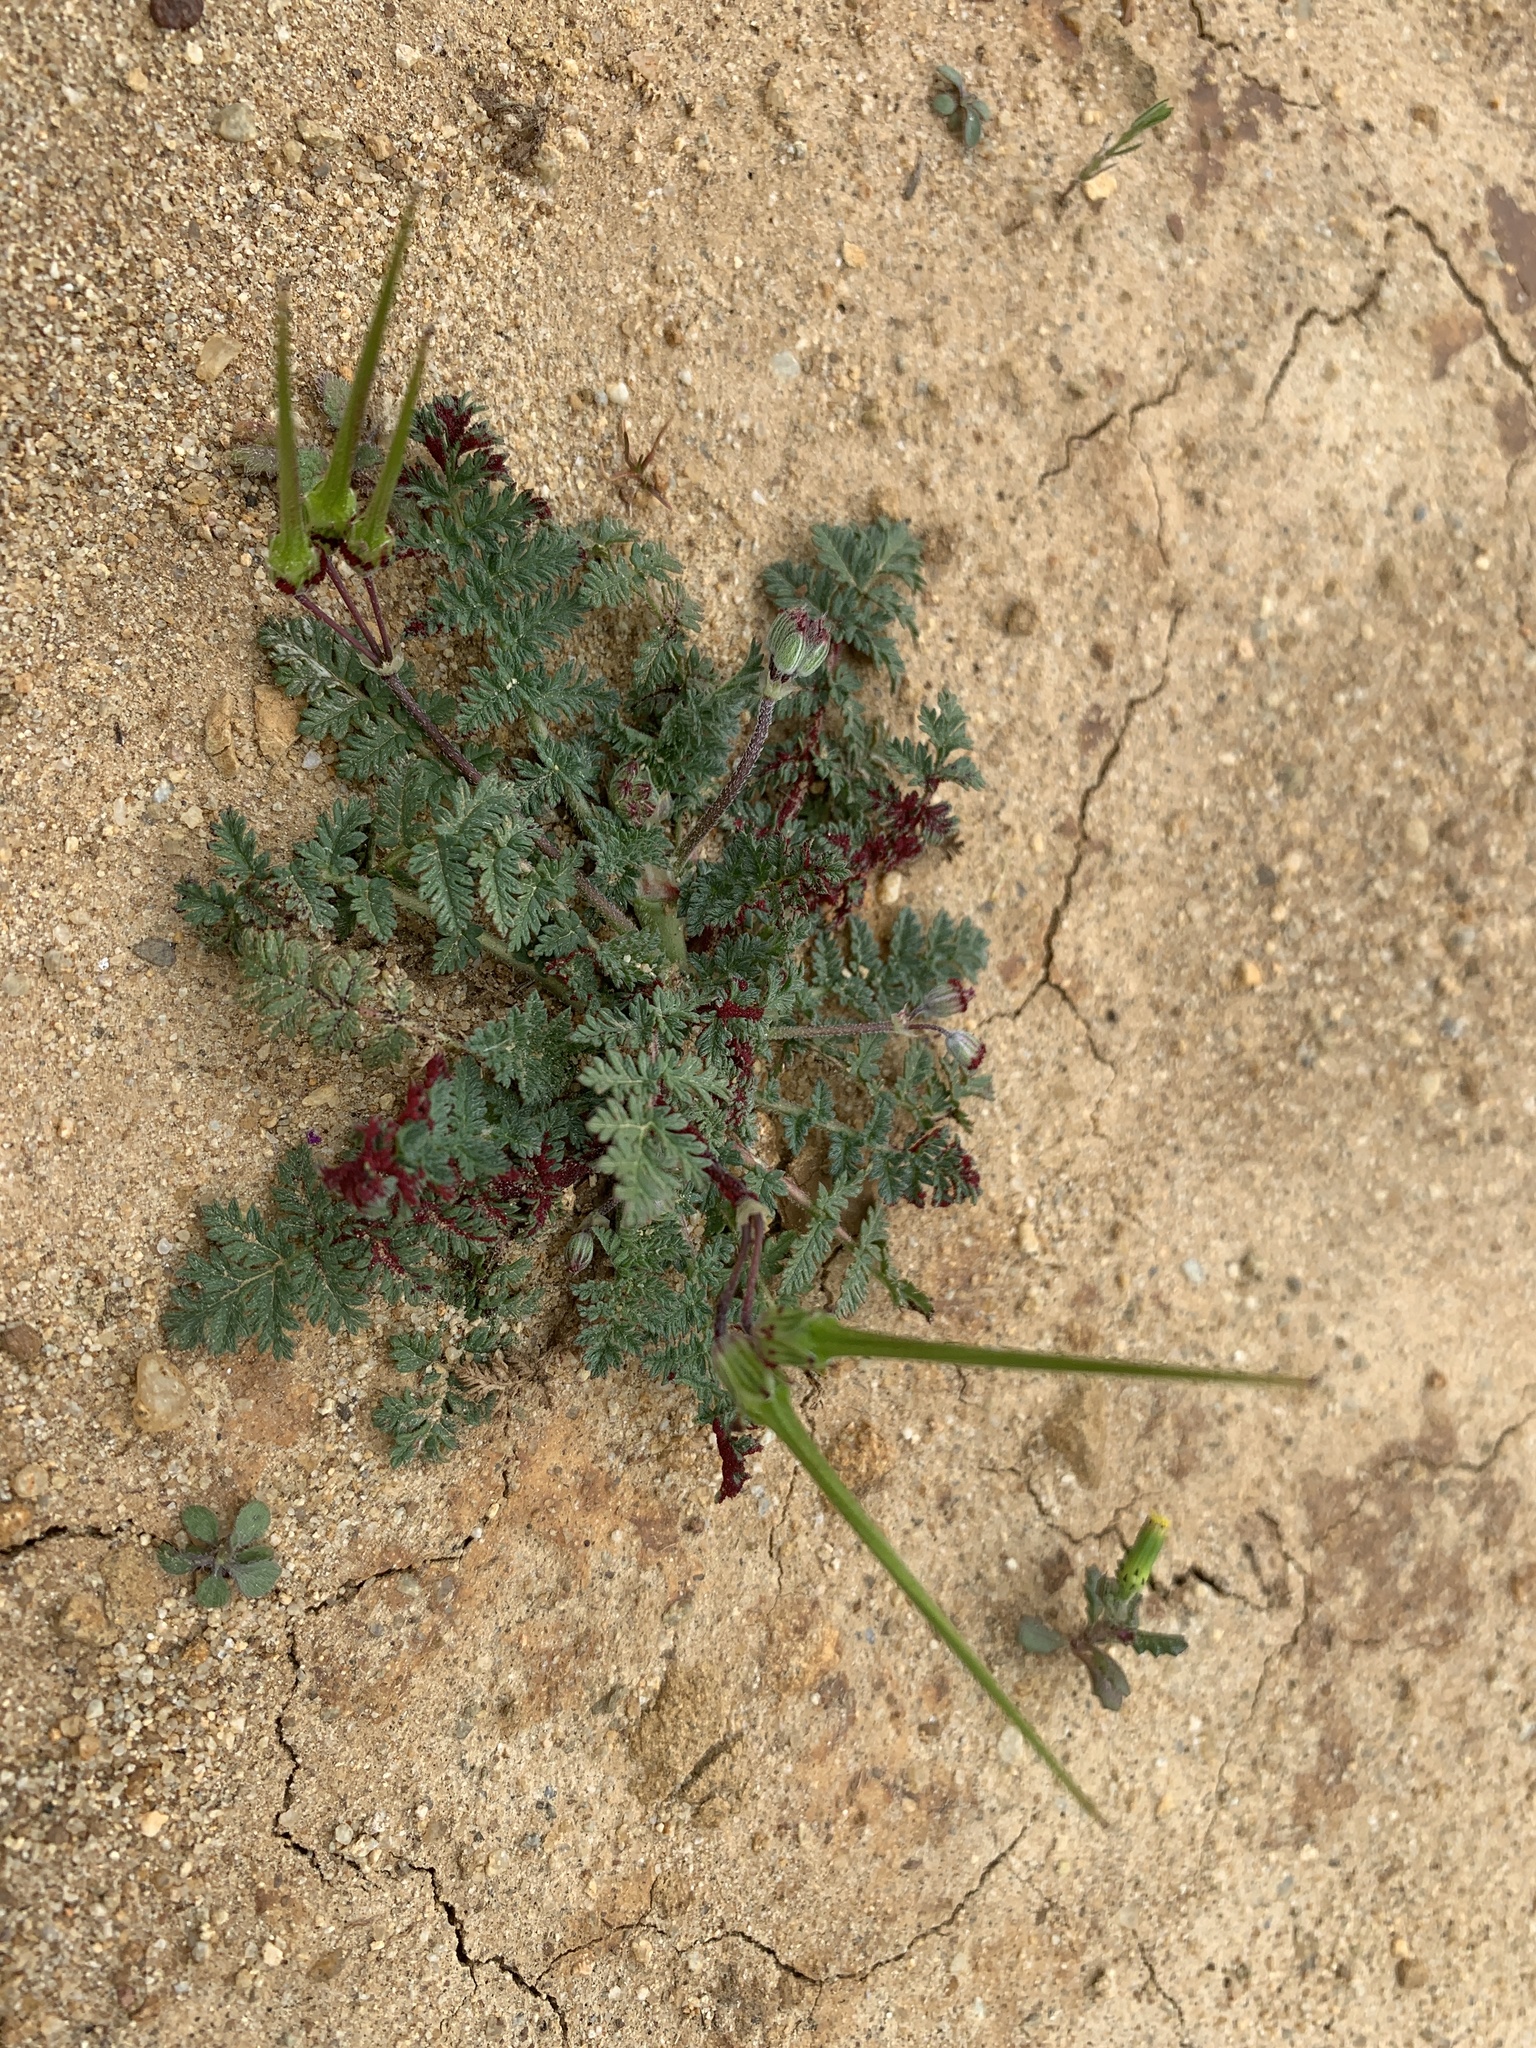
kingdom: Plantae
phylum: Tracheophyta
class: Magnoliopsida
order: Geraniales
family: Geraniaceae
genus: Erodium
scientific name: Erodium cicutarium
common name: Common stork's-bill
